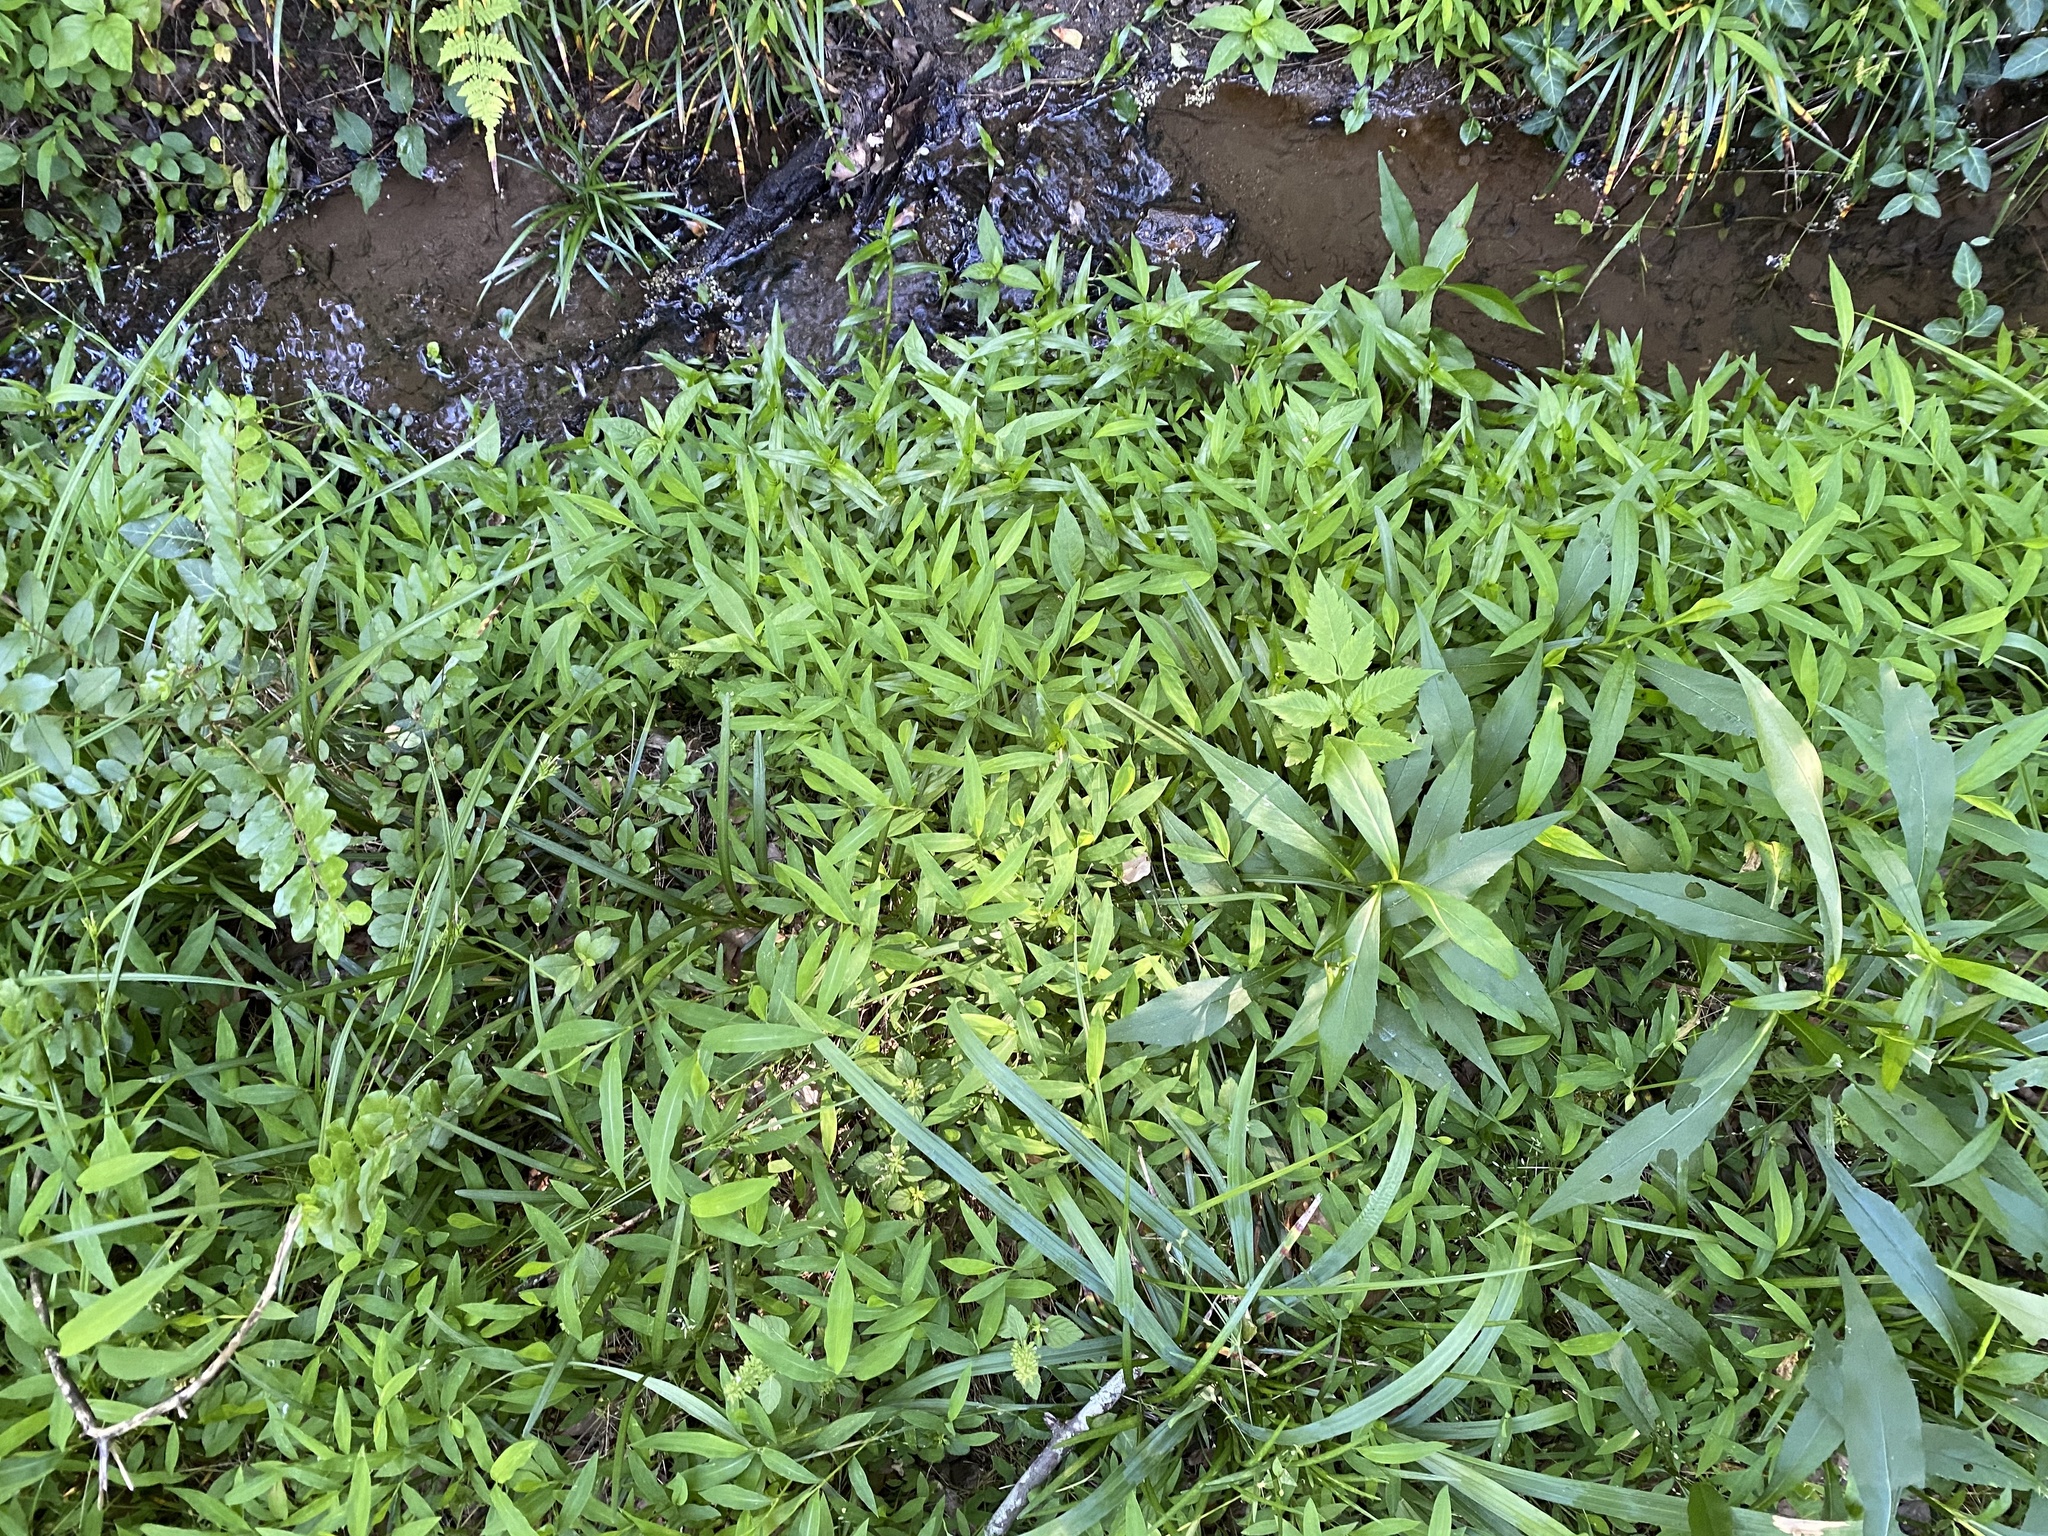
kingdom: Plantae
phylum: Tracheophyta
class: Liliopsida
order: Poales
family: Poaceae
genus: Microstegium
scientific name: Microstegium vimineum
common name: Japanese stiltgrass
